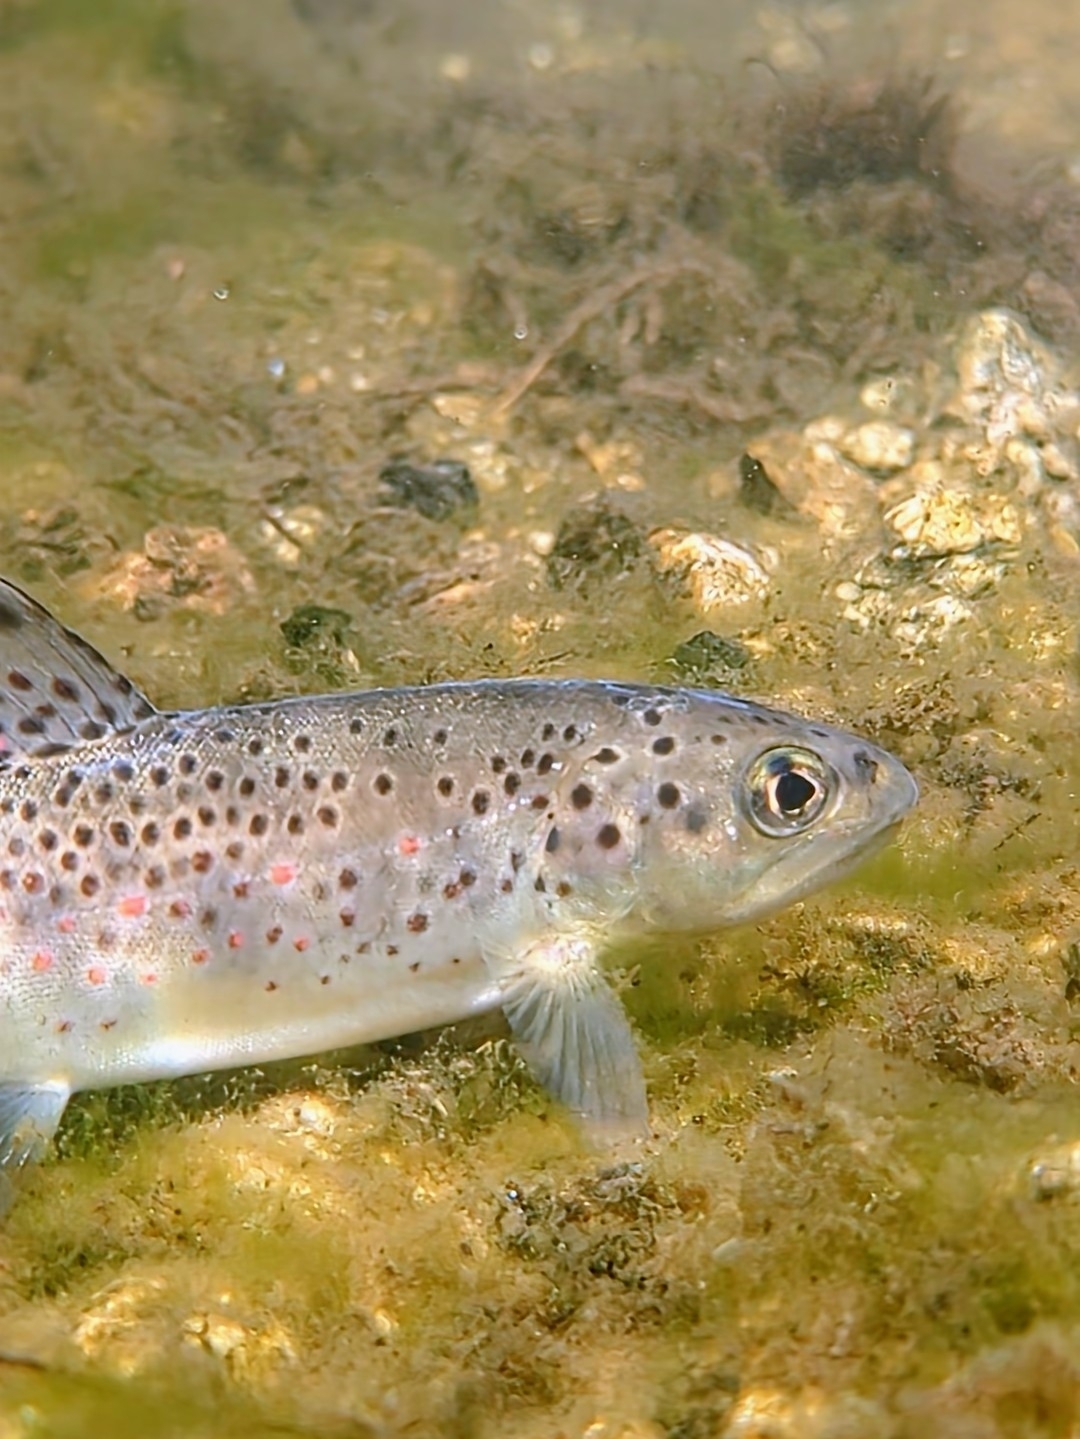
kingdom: Animalia
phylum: Chordata
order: Salmoniformes
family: Salmonidae
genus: Salmo
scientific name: Salmo trutta
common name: Brown trout
